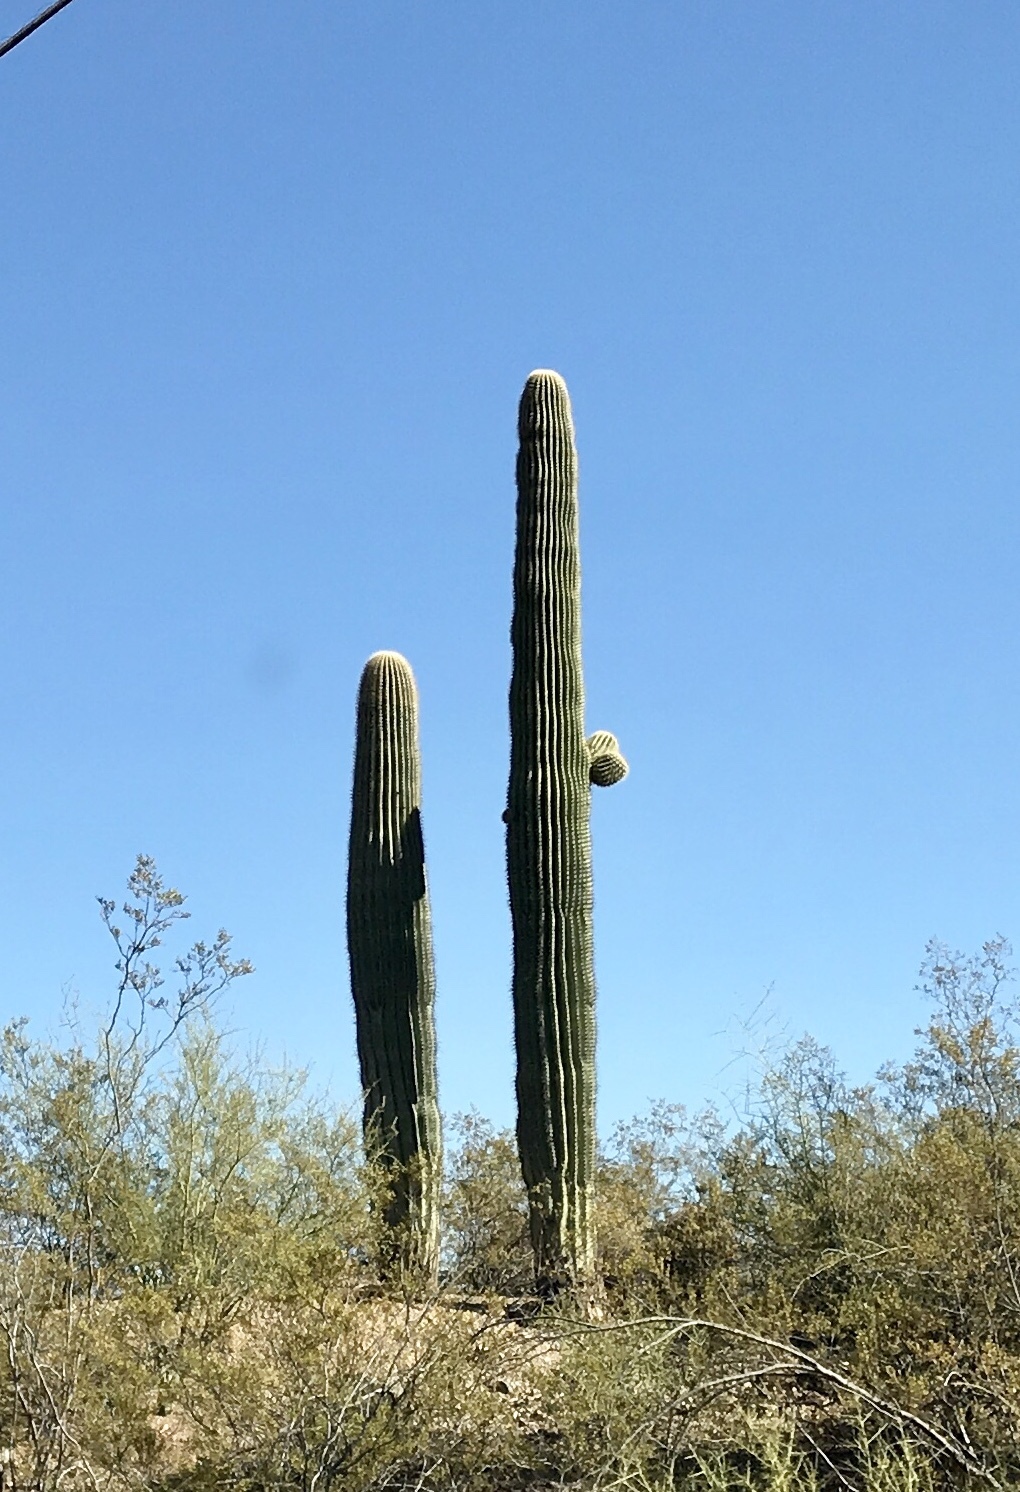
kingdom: Plantae
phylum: Tracheophyta
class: Magnoliopsida
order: Caryophyllales
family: Cactaceae
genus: Carnegiea
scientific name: Carnegiea gigantea
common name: Saguaro
